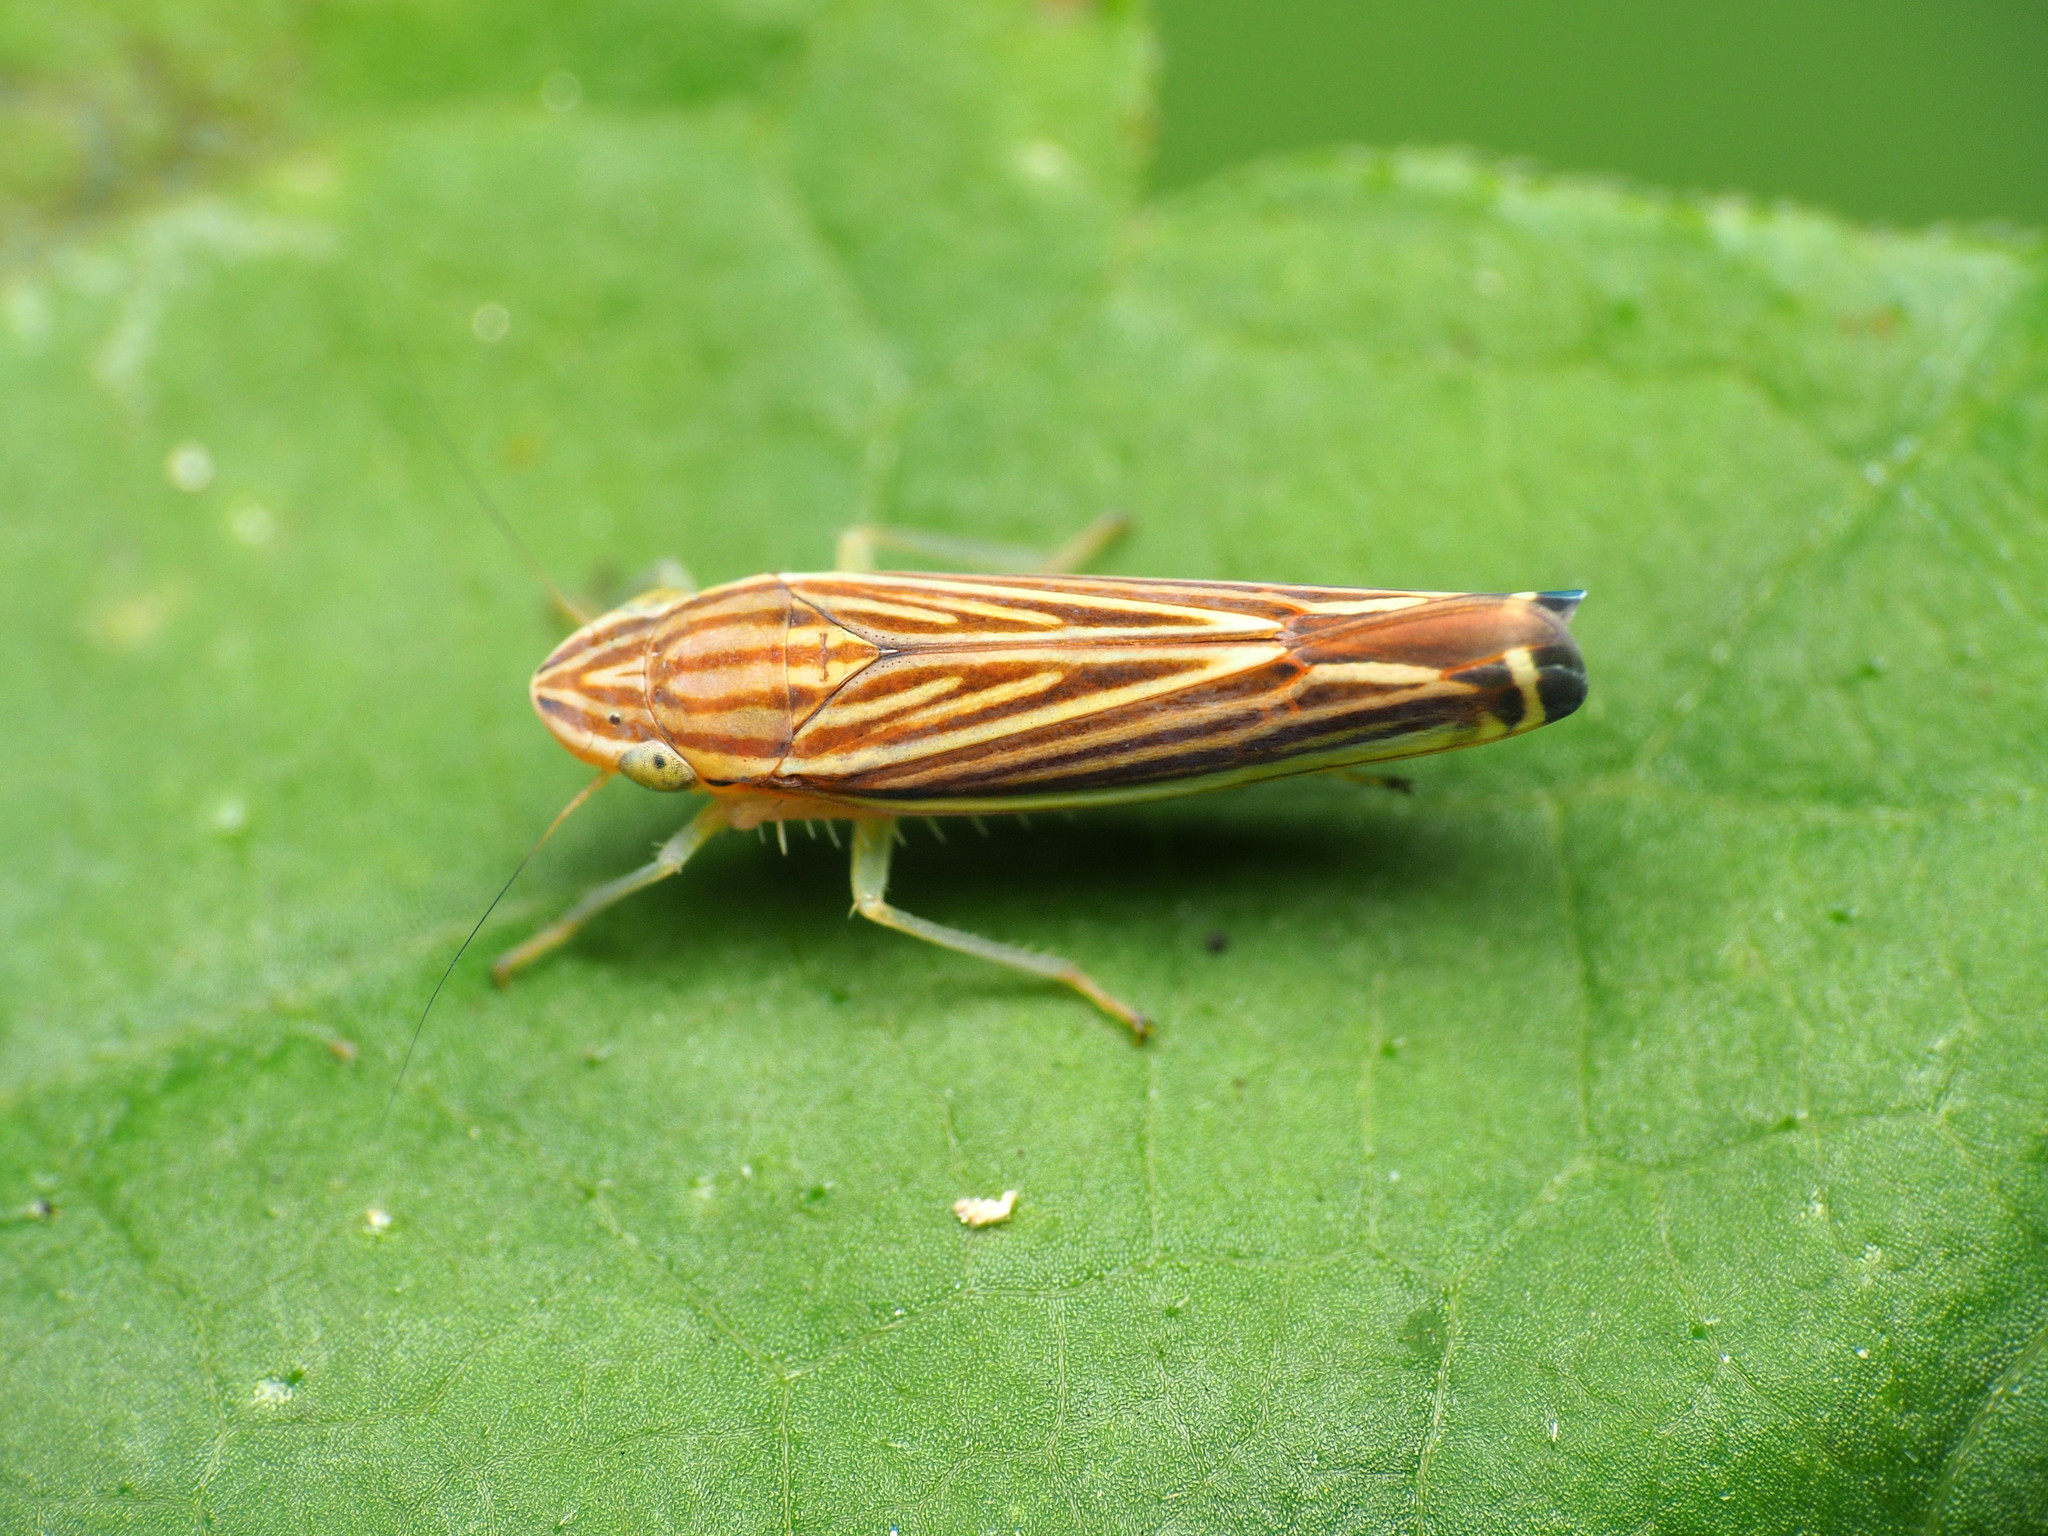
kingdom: Animalia
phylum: Arthropoda
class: Insecta
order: Hemiptera
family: Cicadellidae
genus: Sibovia
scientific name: Sibovia occatoria
